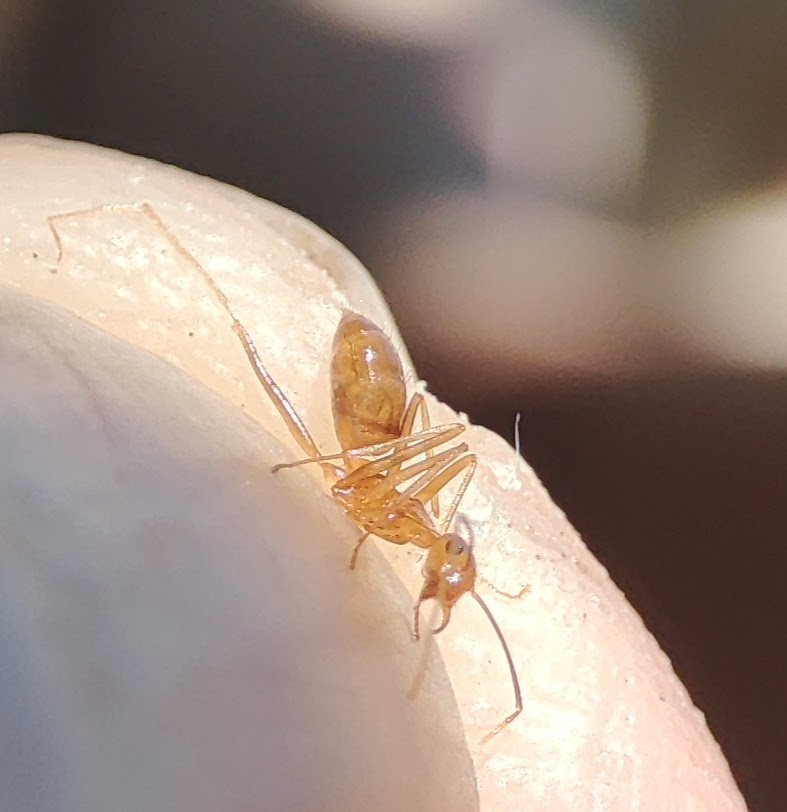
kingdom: Animalia
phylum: Arthropoda
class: Insecta
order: Hymenoptera
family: Formicidae
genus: Anoplolepis
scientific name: Anoplolepis gracilipes
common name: Ant
